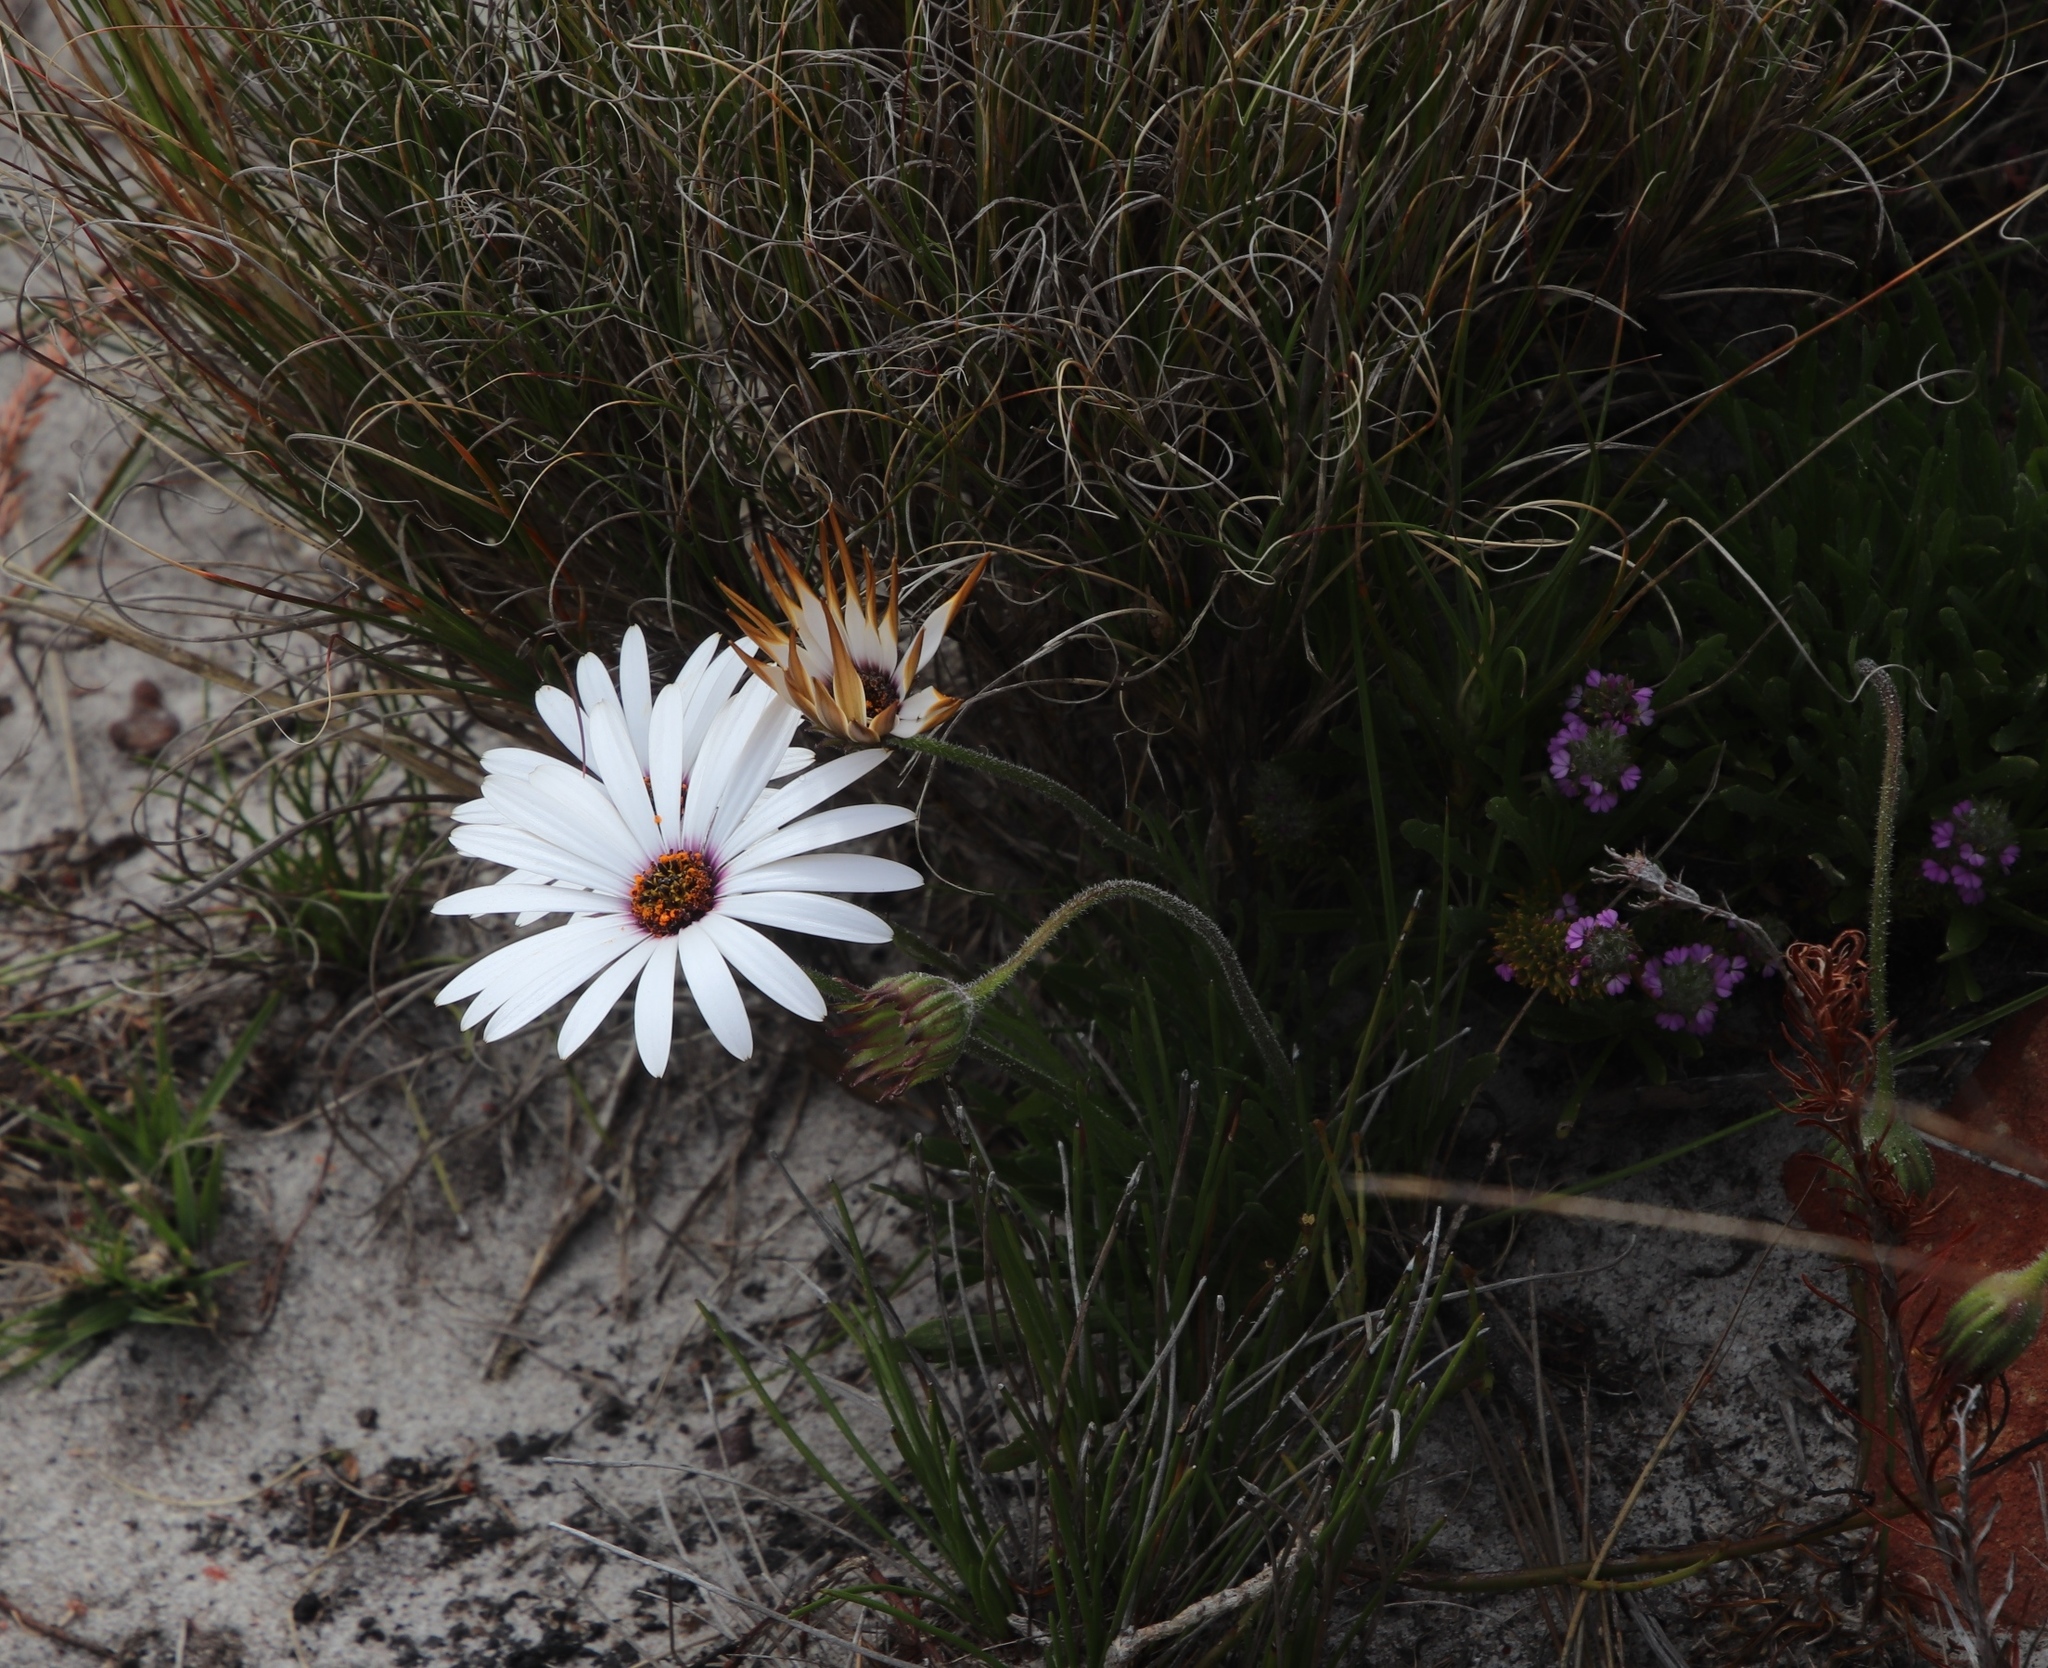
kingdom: Plantae
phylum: Tracheophyta
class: Magnoliopsida
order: Asterales
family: Asteraceae
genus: Dimorphotheca
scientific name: Dimorphotheca nudicaulis
